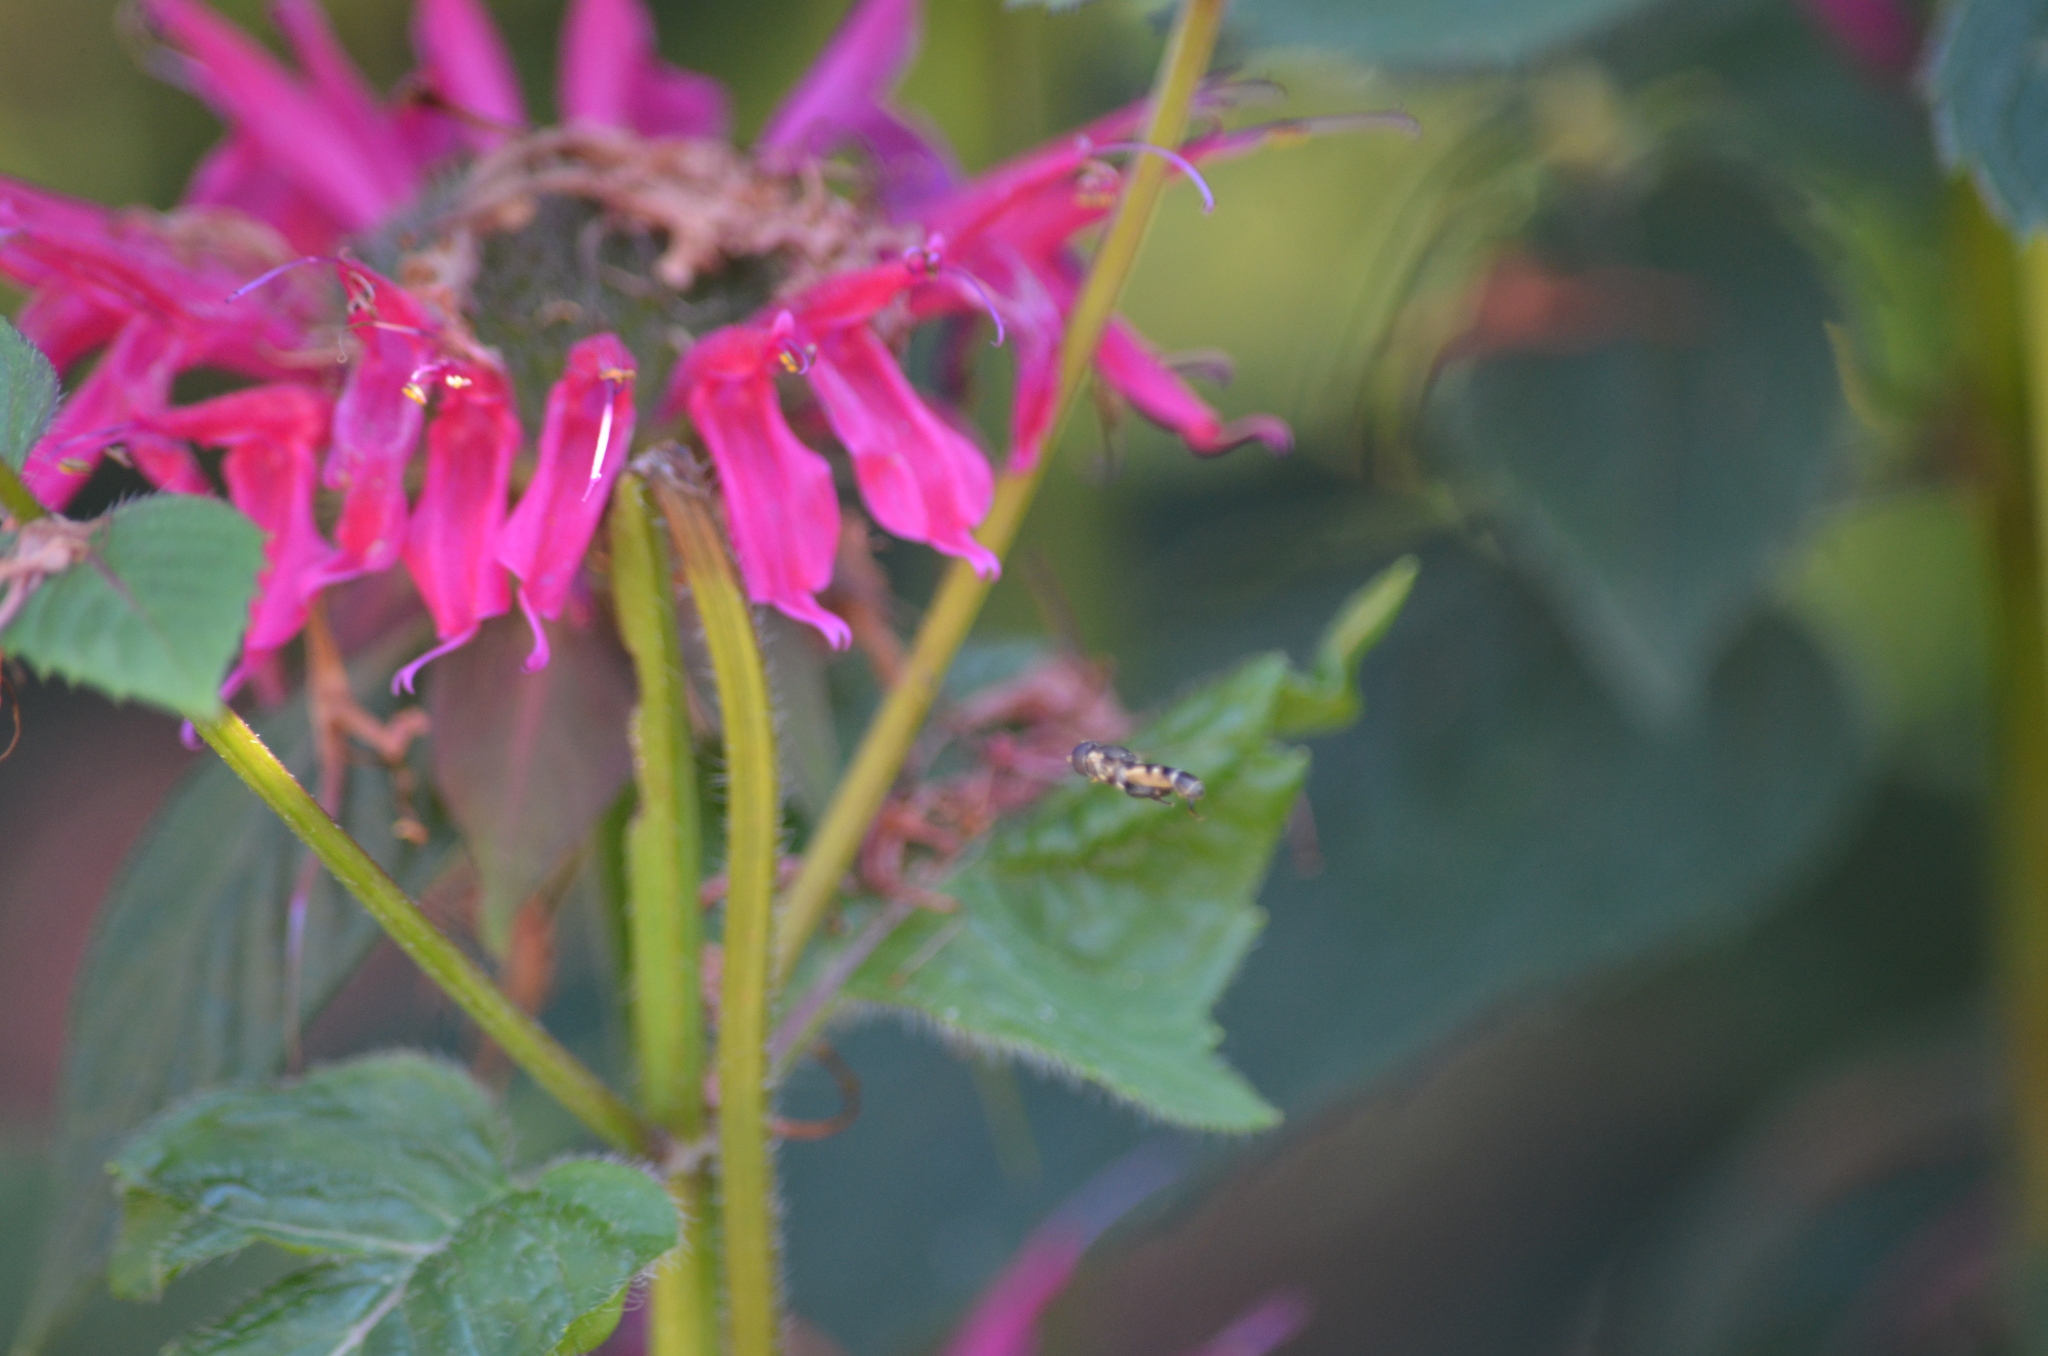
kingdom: Animalia
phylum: Arthropoda
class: Insecta
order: Diptera
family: Syrphidae
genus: Syritta
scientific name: Syritta pipiens
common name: Hover fly
